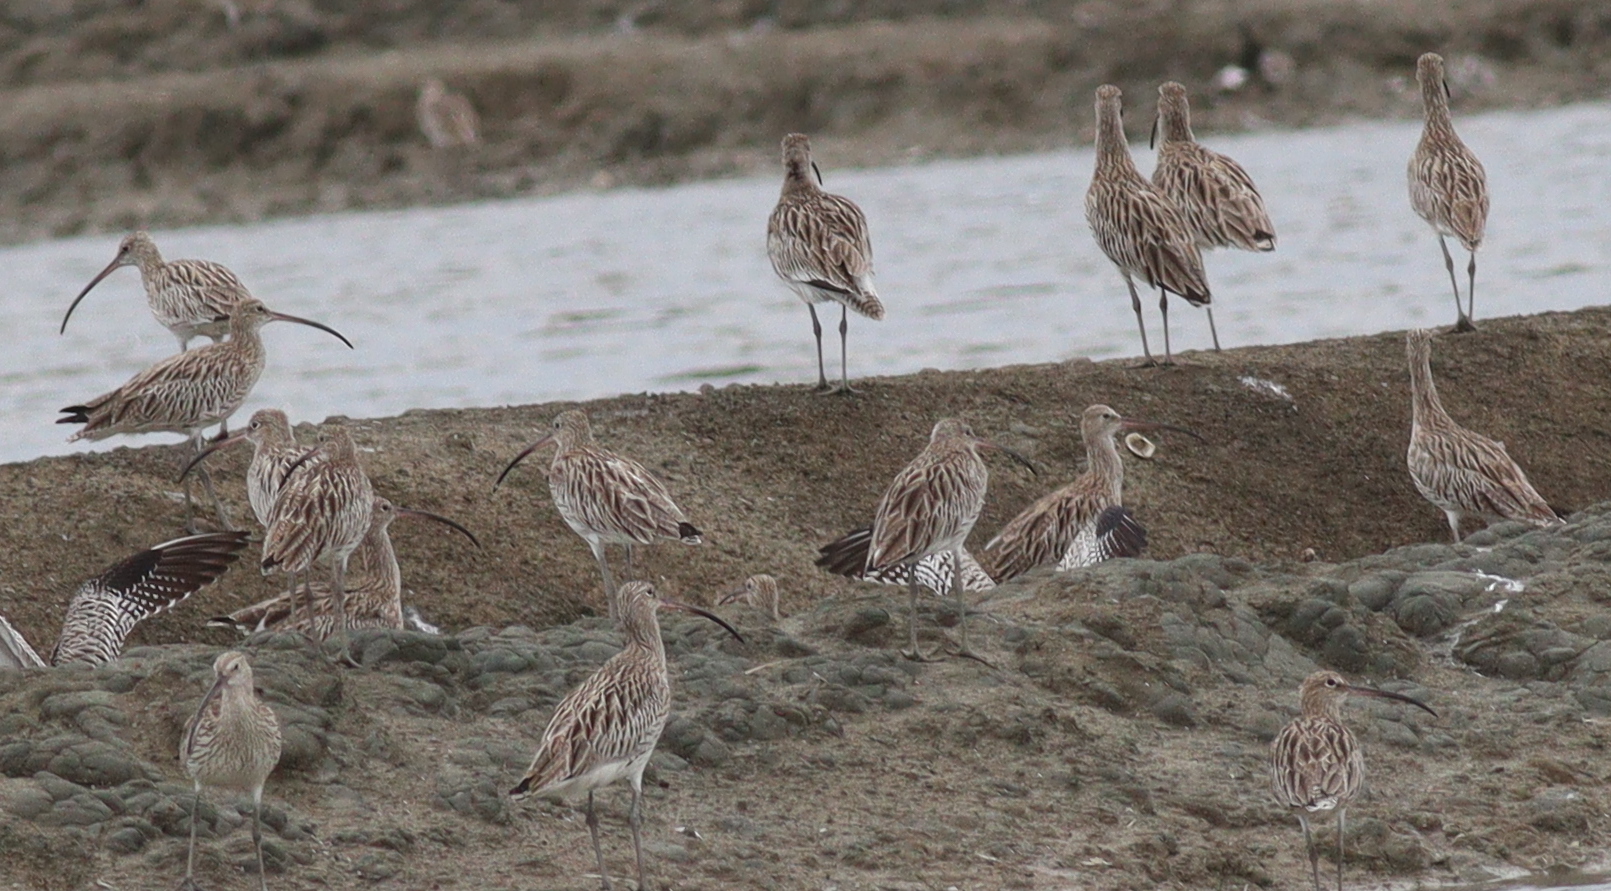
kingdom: Animalia
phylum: Chordata
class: Aves
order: Charadriiformes
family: Scolopacidae
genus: Numenius
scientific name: Numenius arquata
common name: Eurasian curlew
